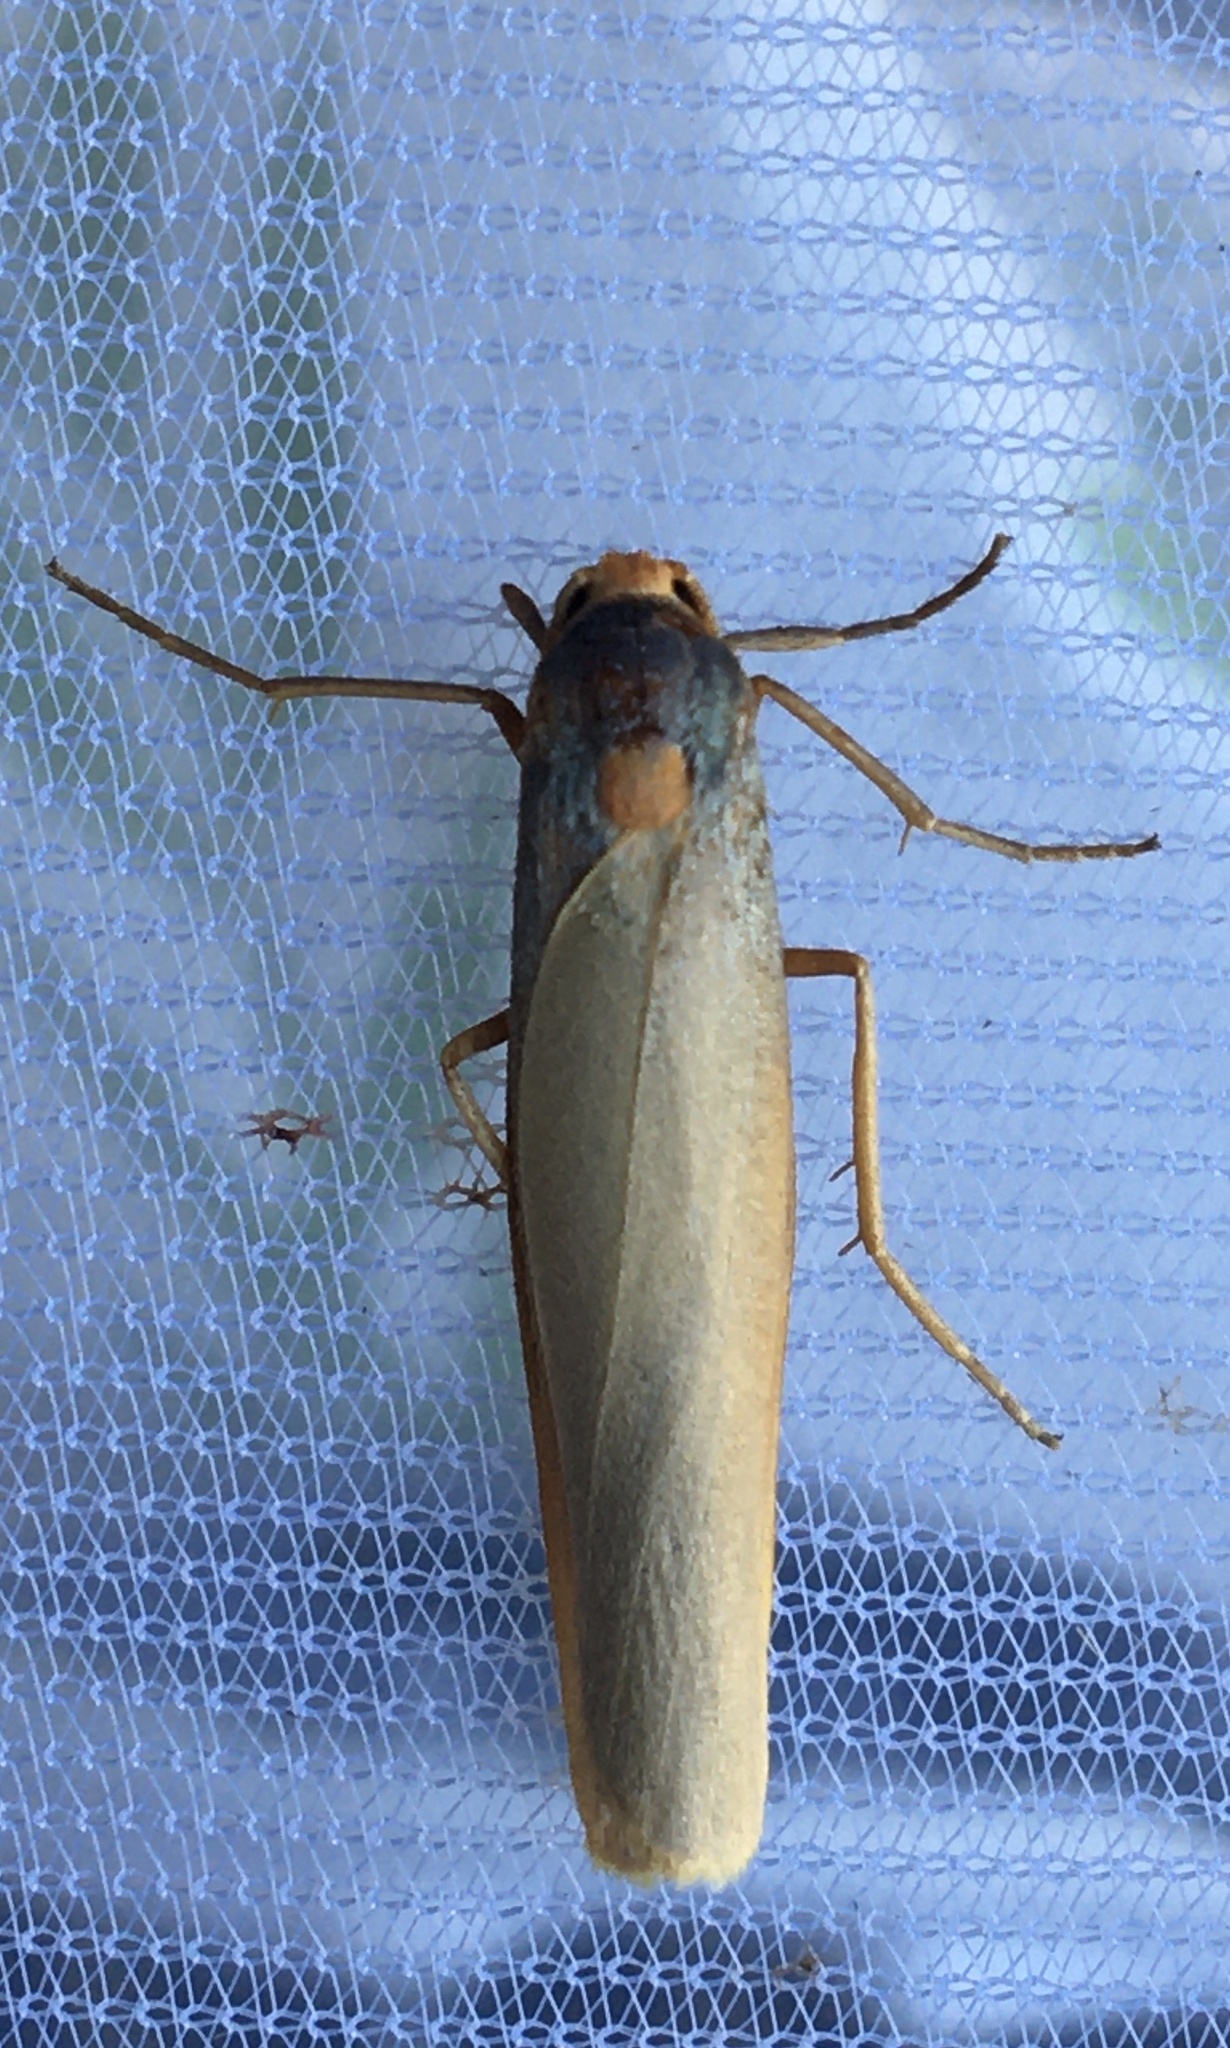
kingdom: Animalia
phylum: Arthropoda
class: Insecta
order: Lepidoptera
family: Erebidae
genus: Sozusa
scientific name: Sozusa scutellata
